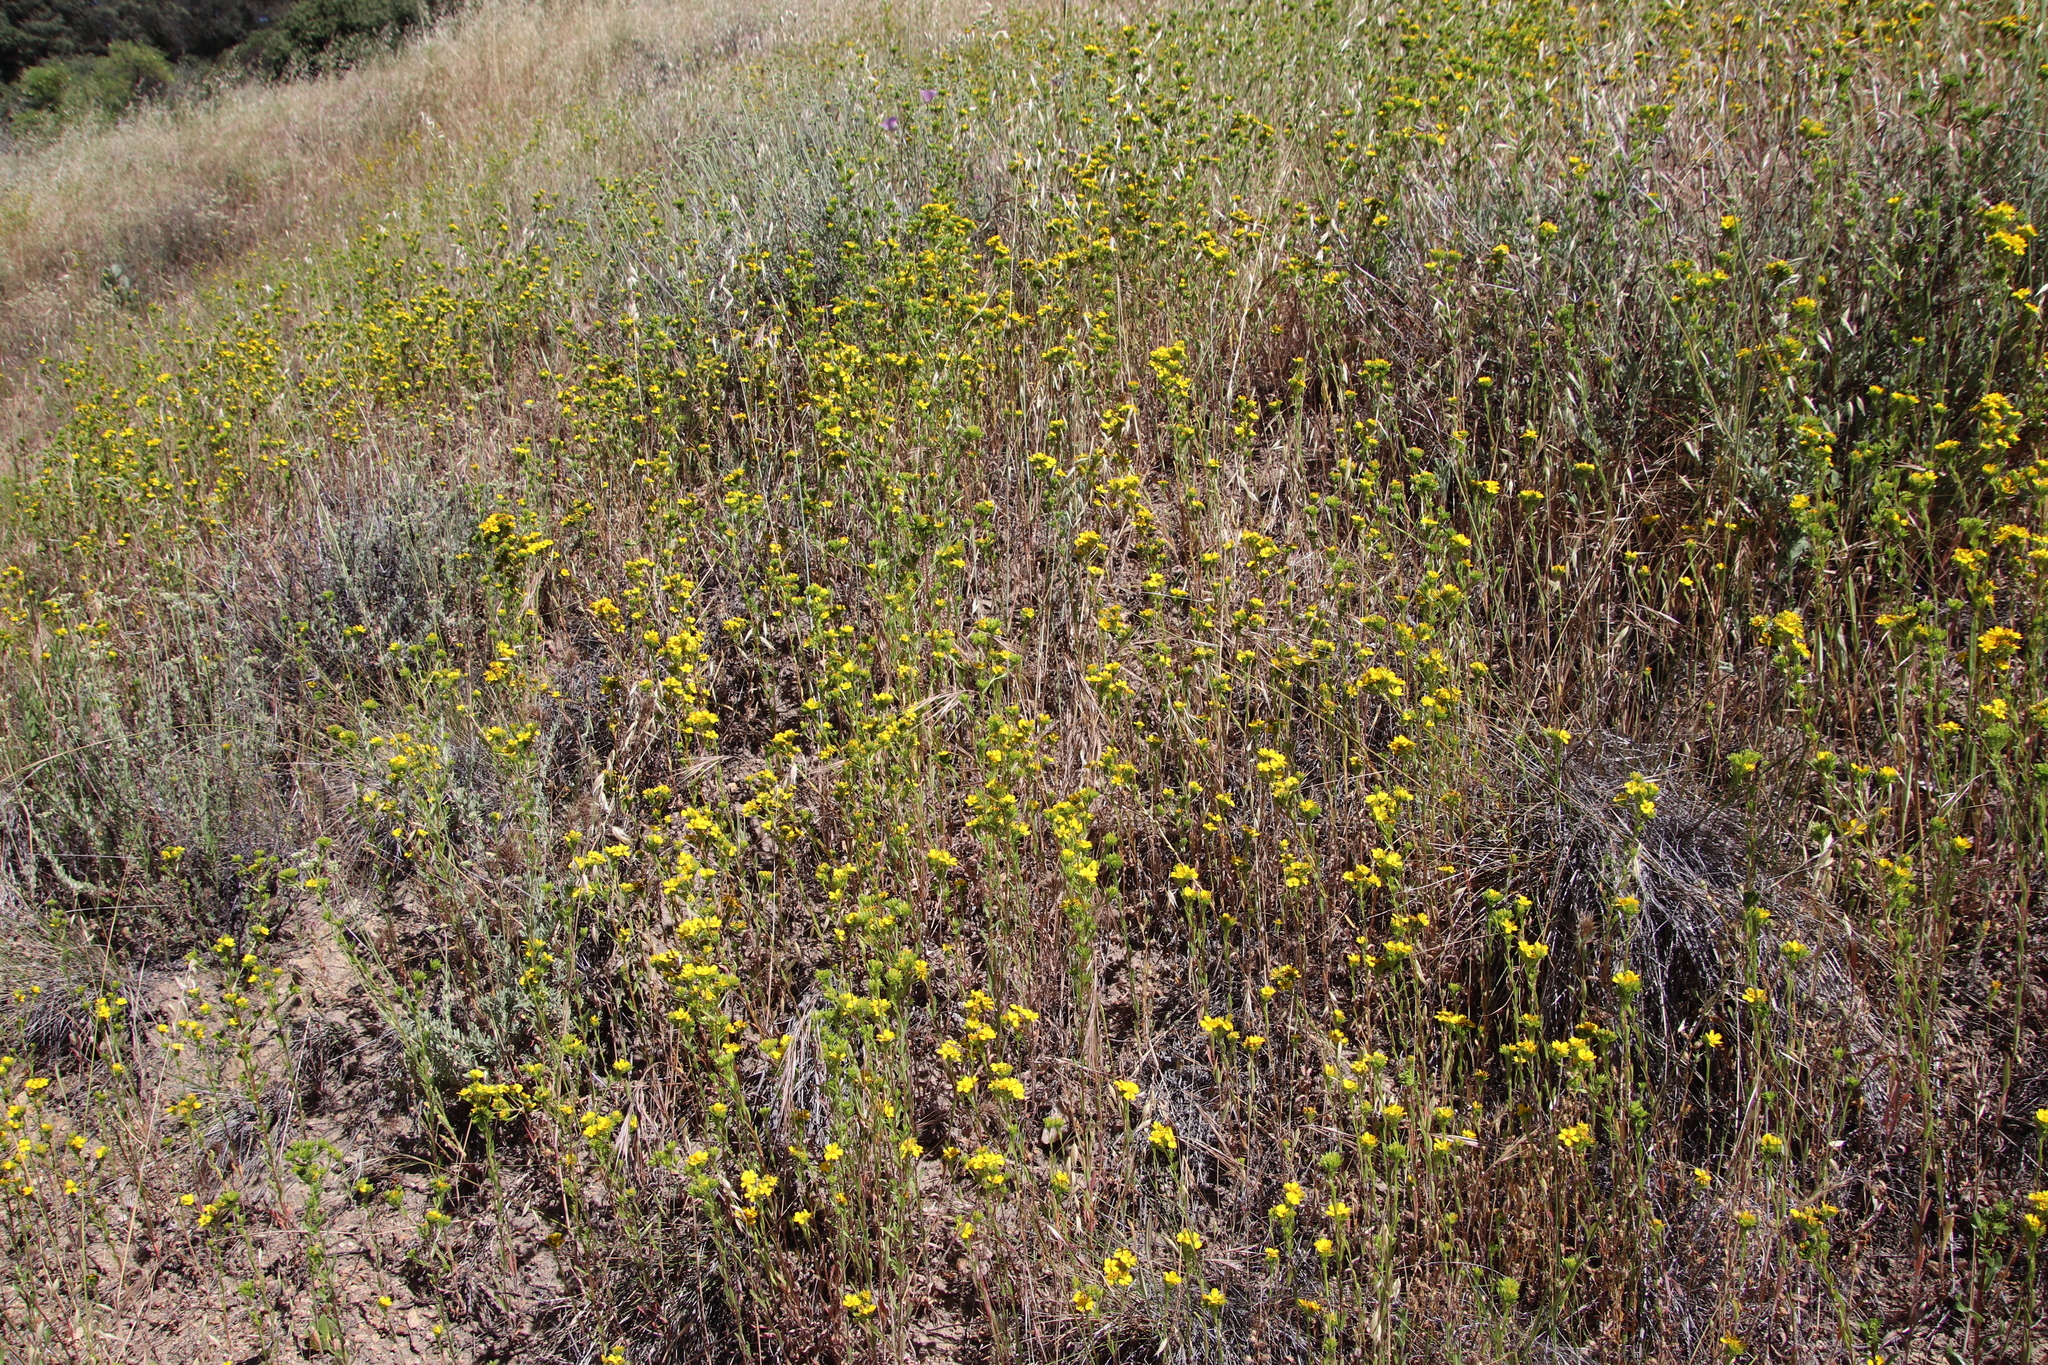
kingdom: Plantae
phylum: Tracheophyta
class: Magnoliopsida
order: Asterales
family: Asteraceae
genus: Deinandra
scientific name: Deinandra fasciculata
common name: Clustered tarweed
